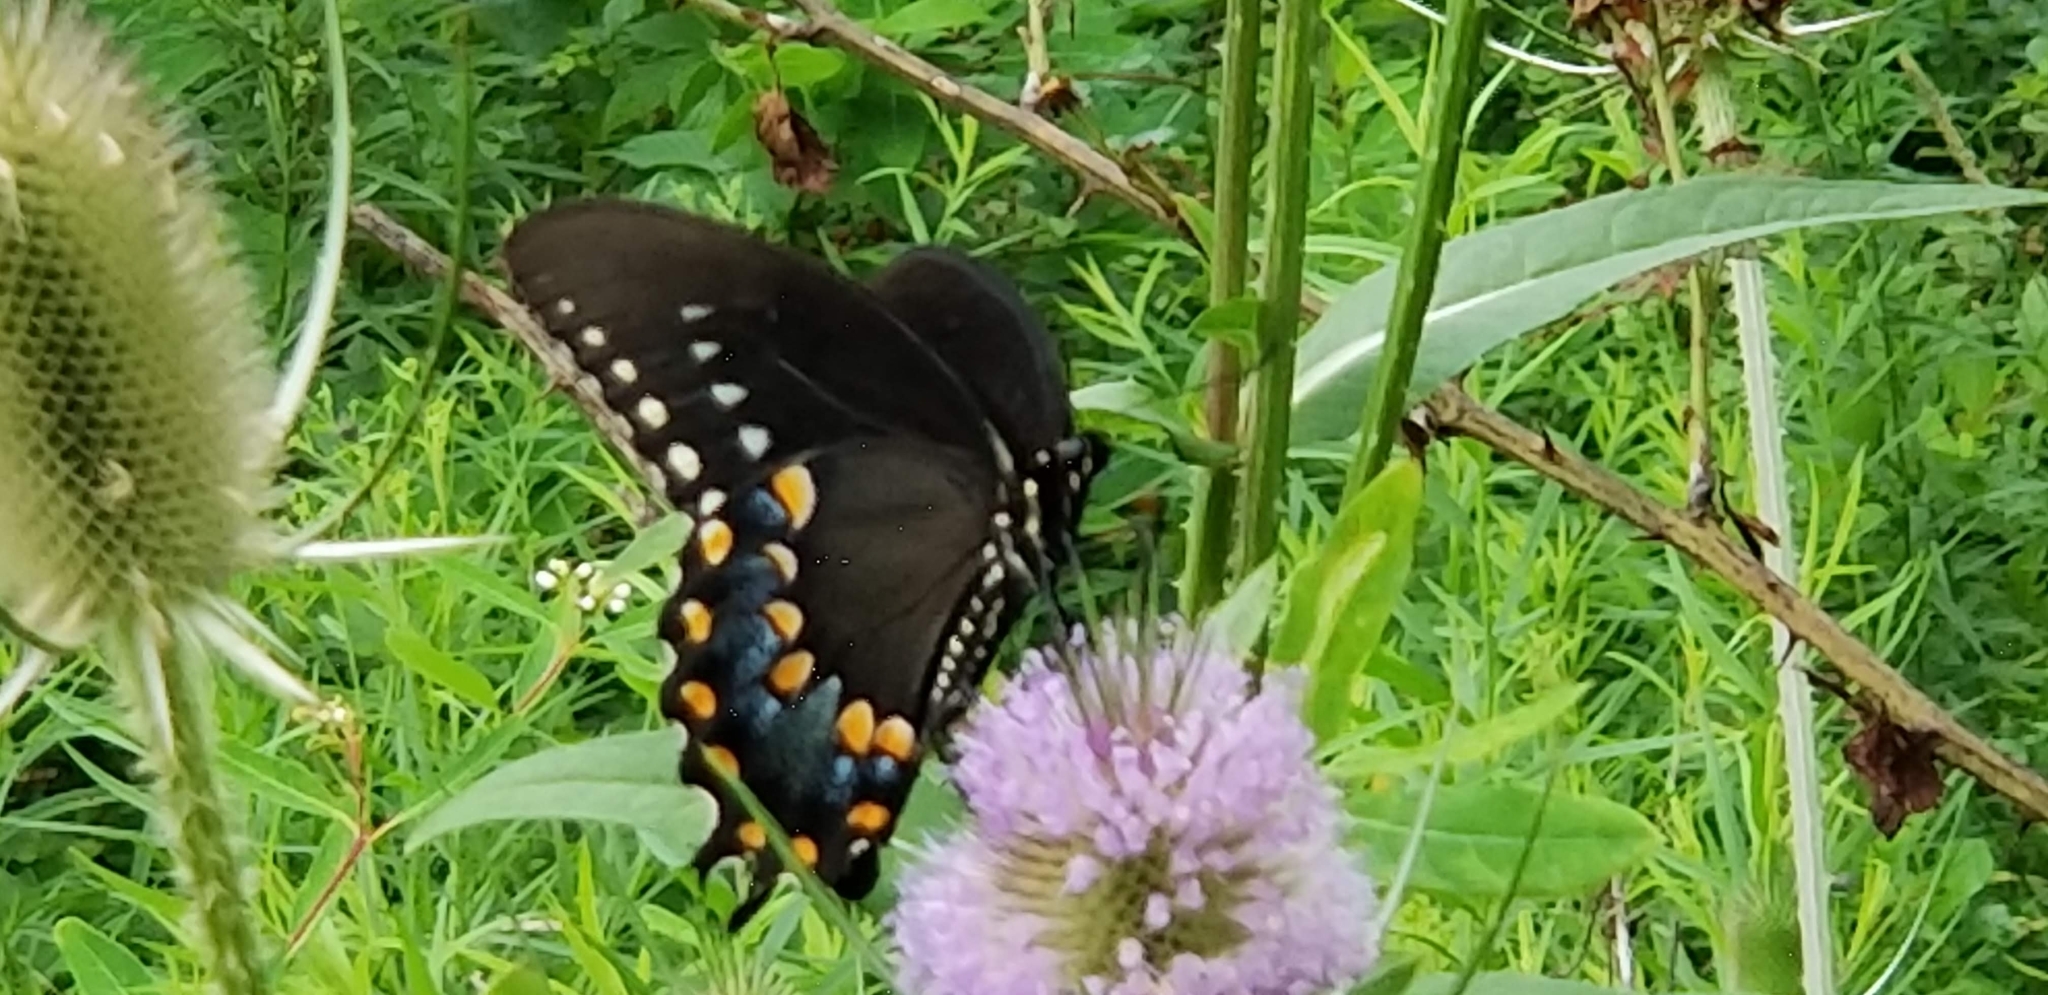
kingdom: Animalia
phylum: Arthropoda
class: Insecta
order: Lepidoptera
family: Papilionidae
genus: Papilio
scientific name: Papilio troilus
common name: Spicebush swallowtail
